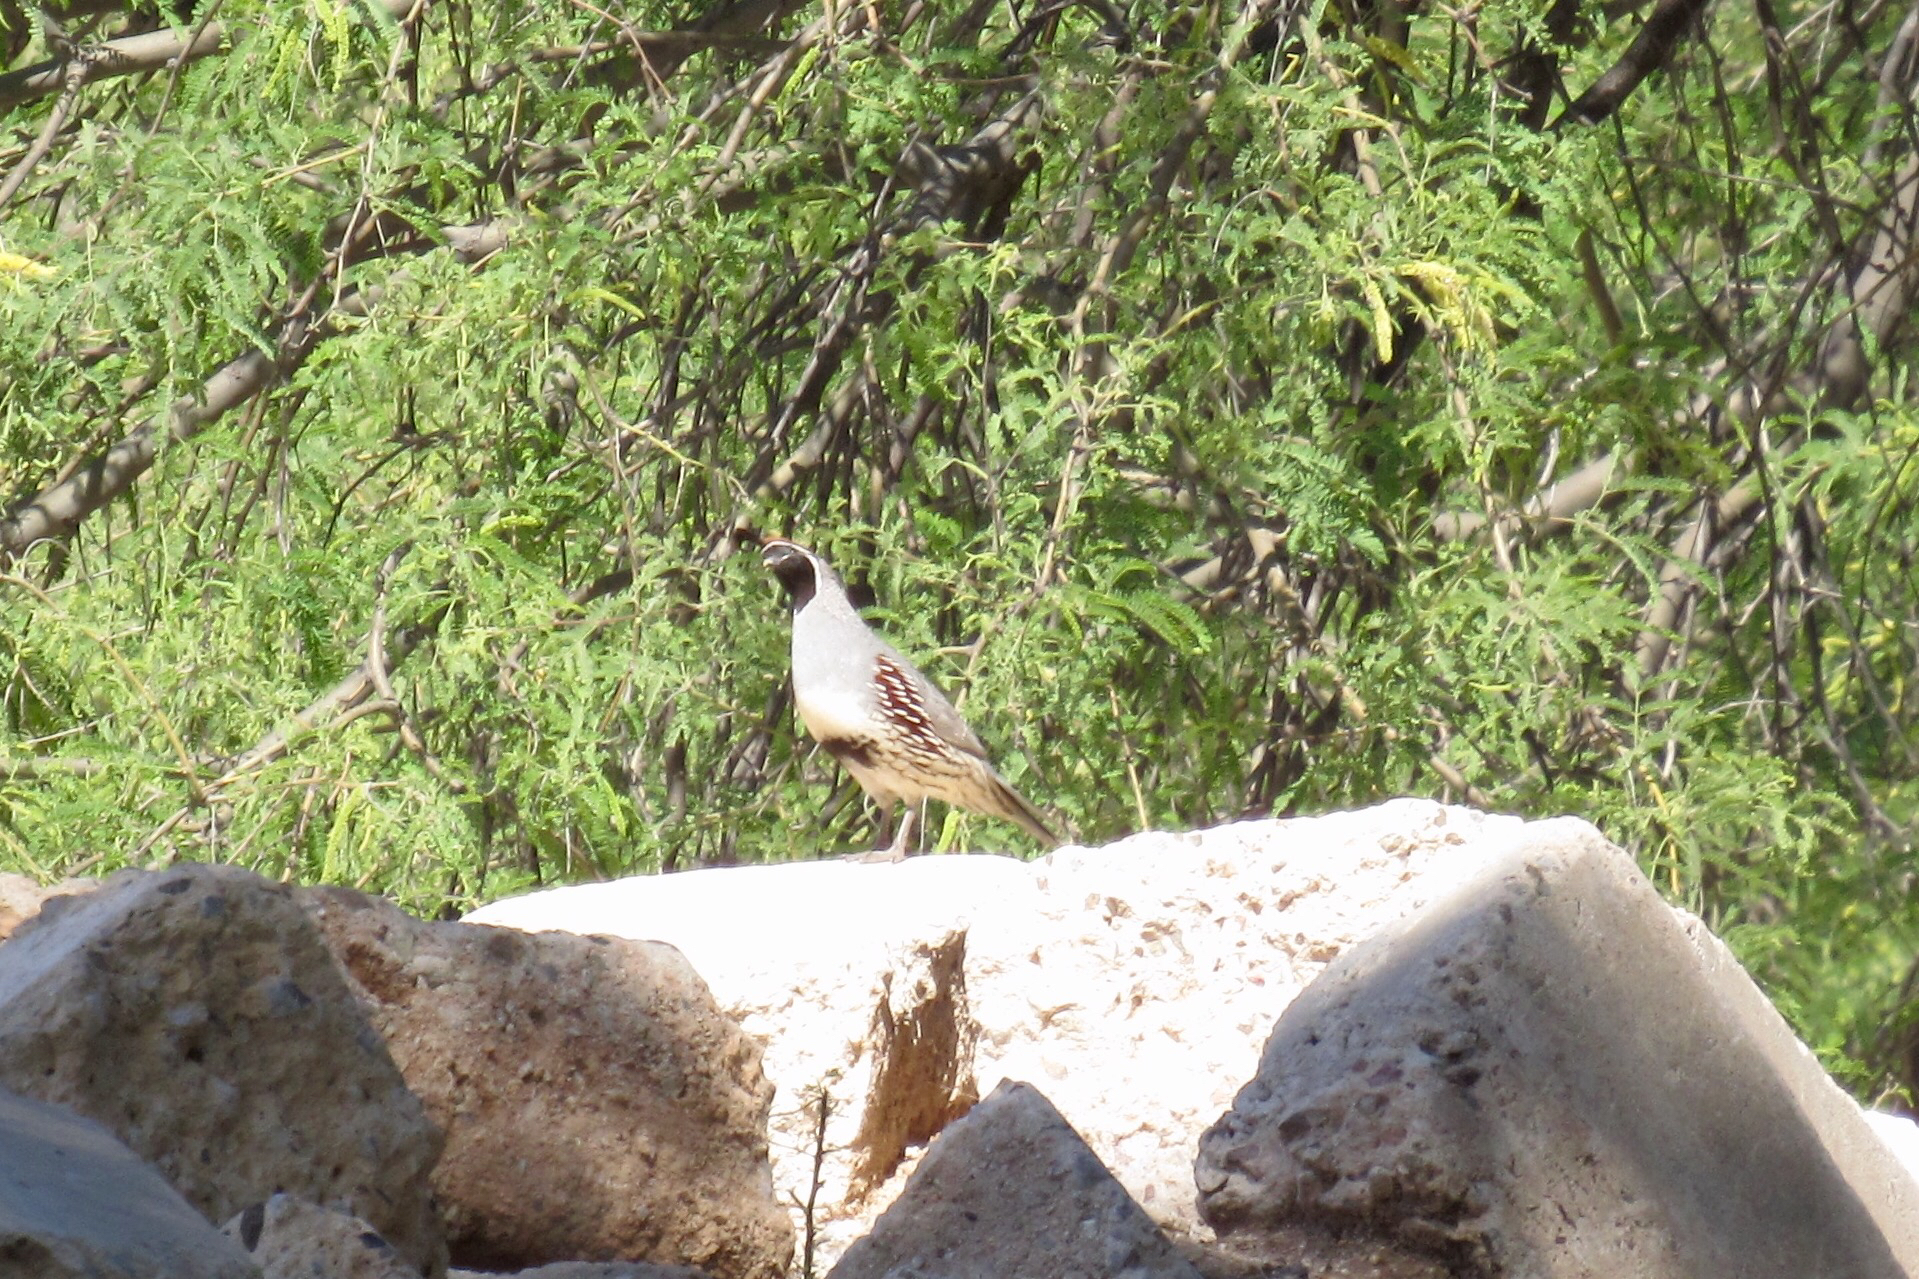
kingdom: Animalia
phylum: Chordata
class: Aves
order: Galliformes
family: Odontophoridae
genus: Callipepla
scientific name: Callipepla gambelii
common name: Gambel's quail
